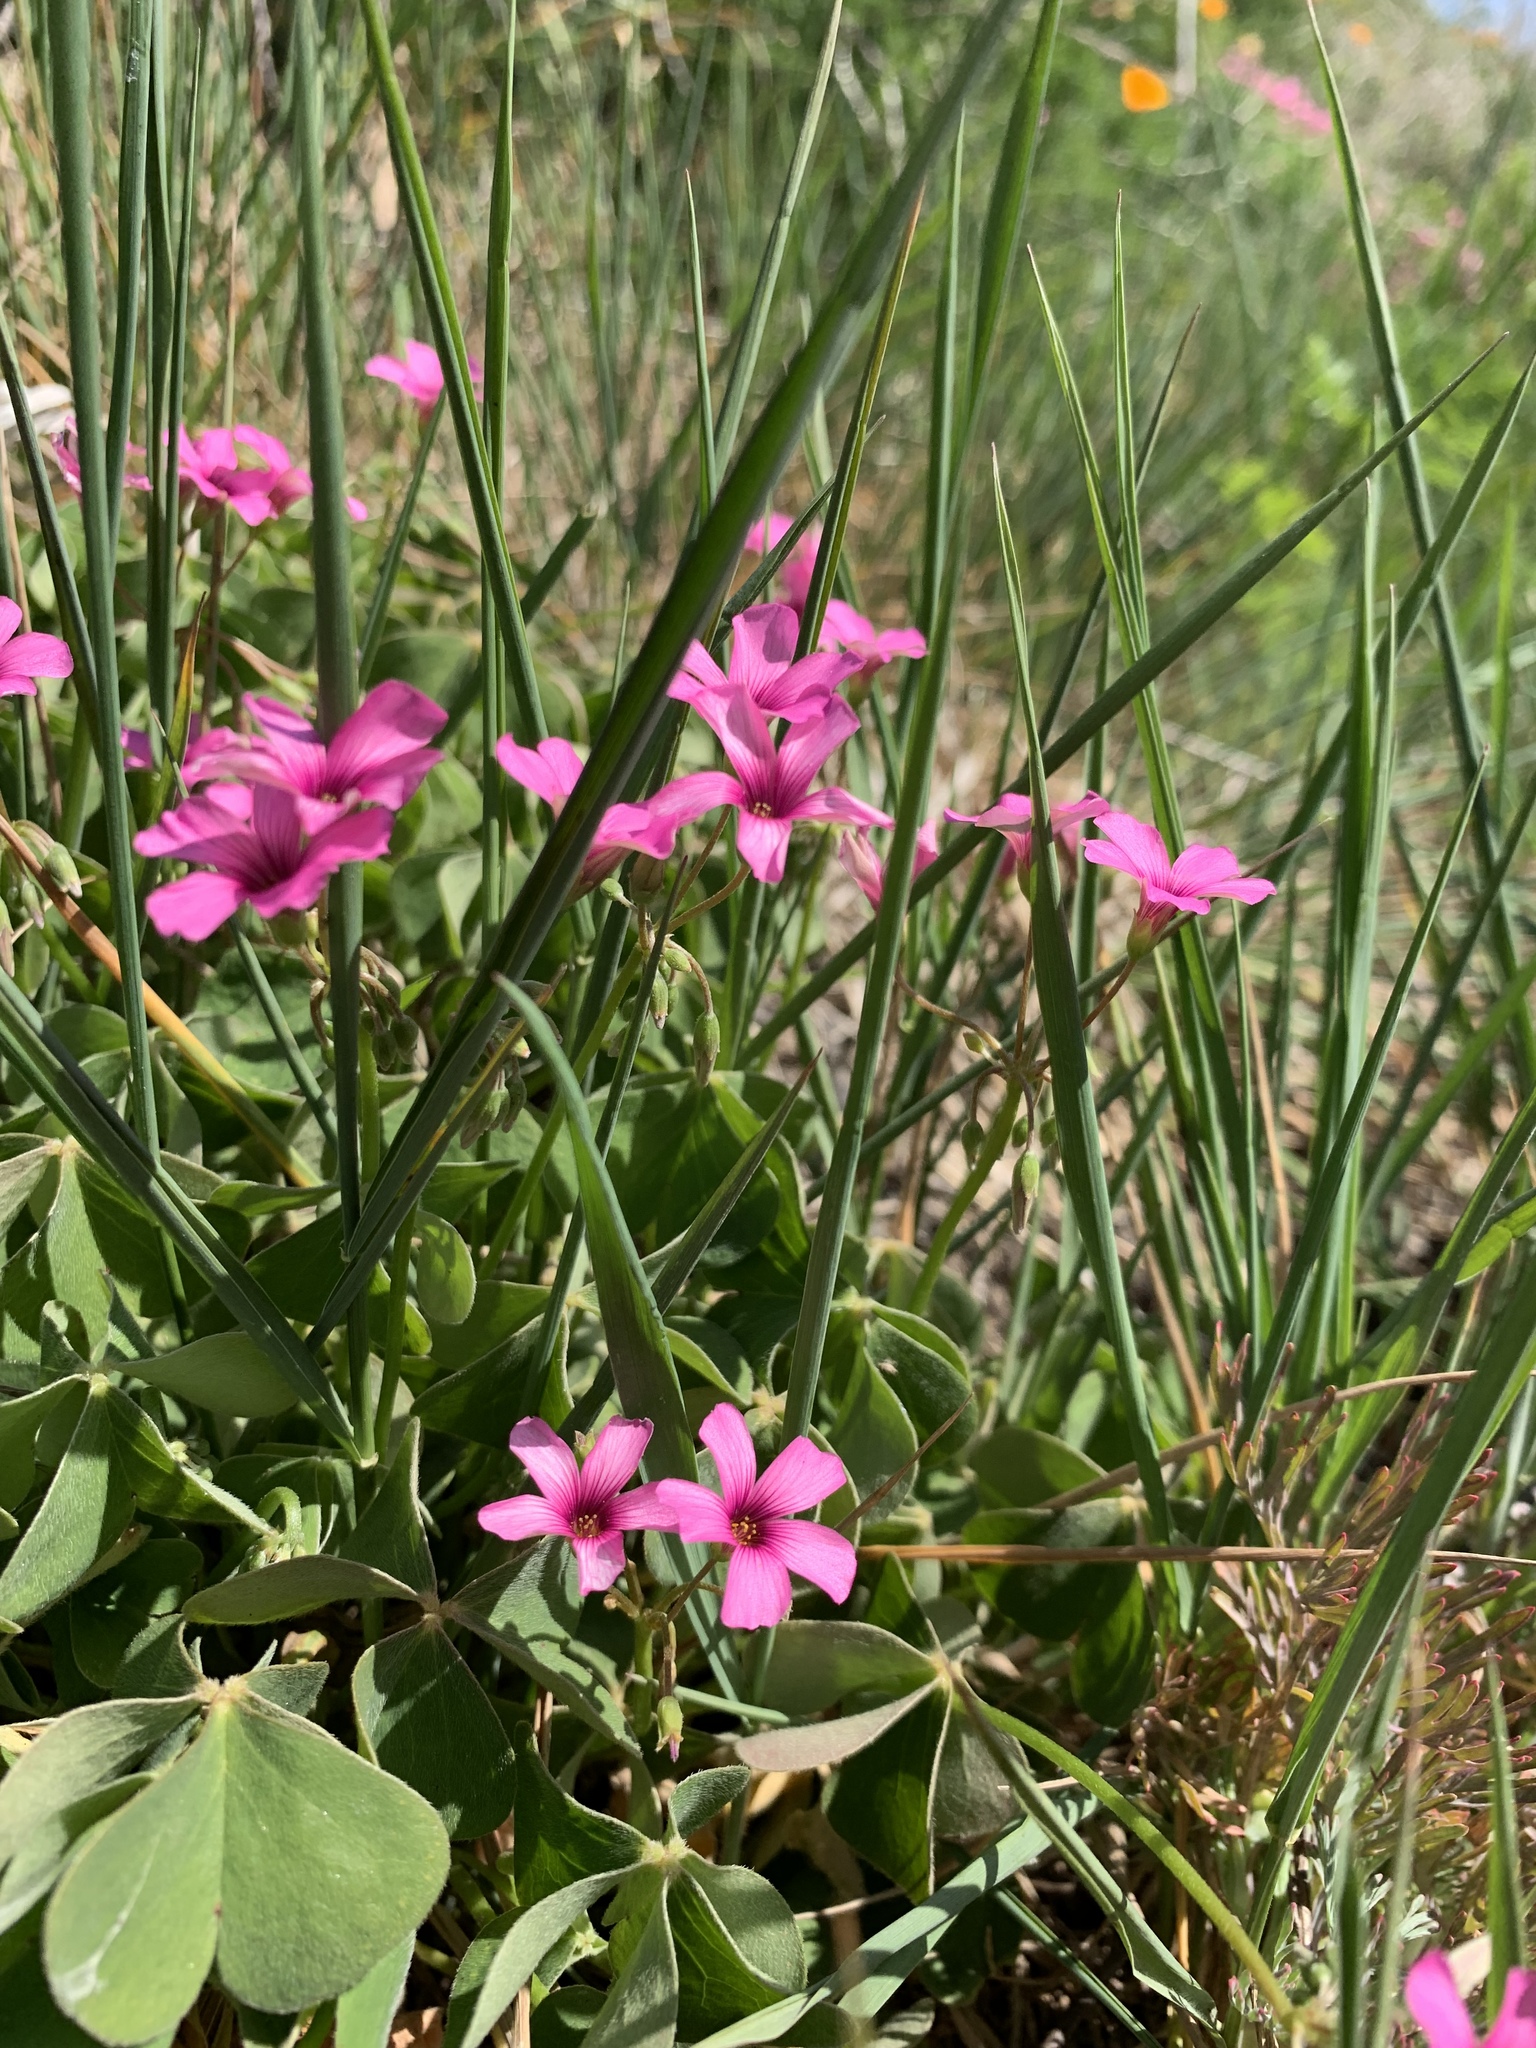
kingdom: Plantae
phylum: Tracheophyta
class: Magnoliopsida
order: Oxalidales
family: Oxalidaceae
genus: Oxalis
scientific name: Oxalis articulata
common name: Pink-sorrel
